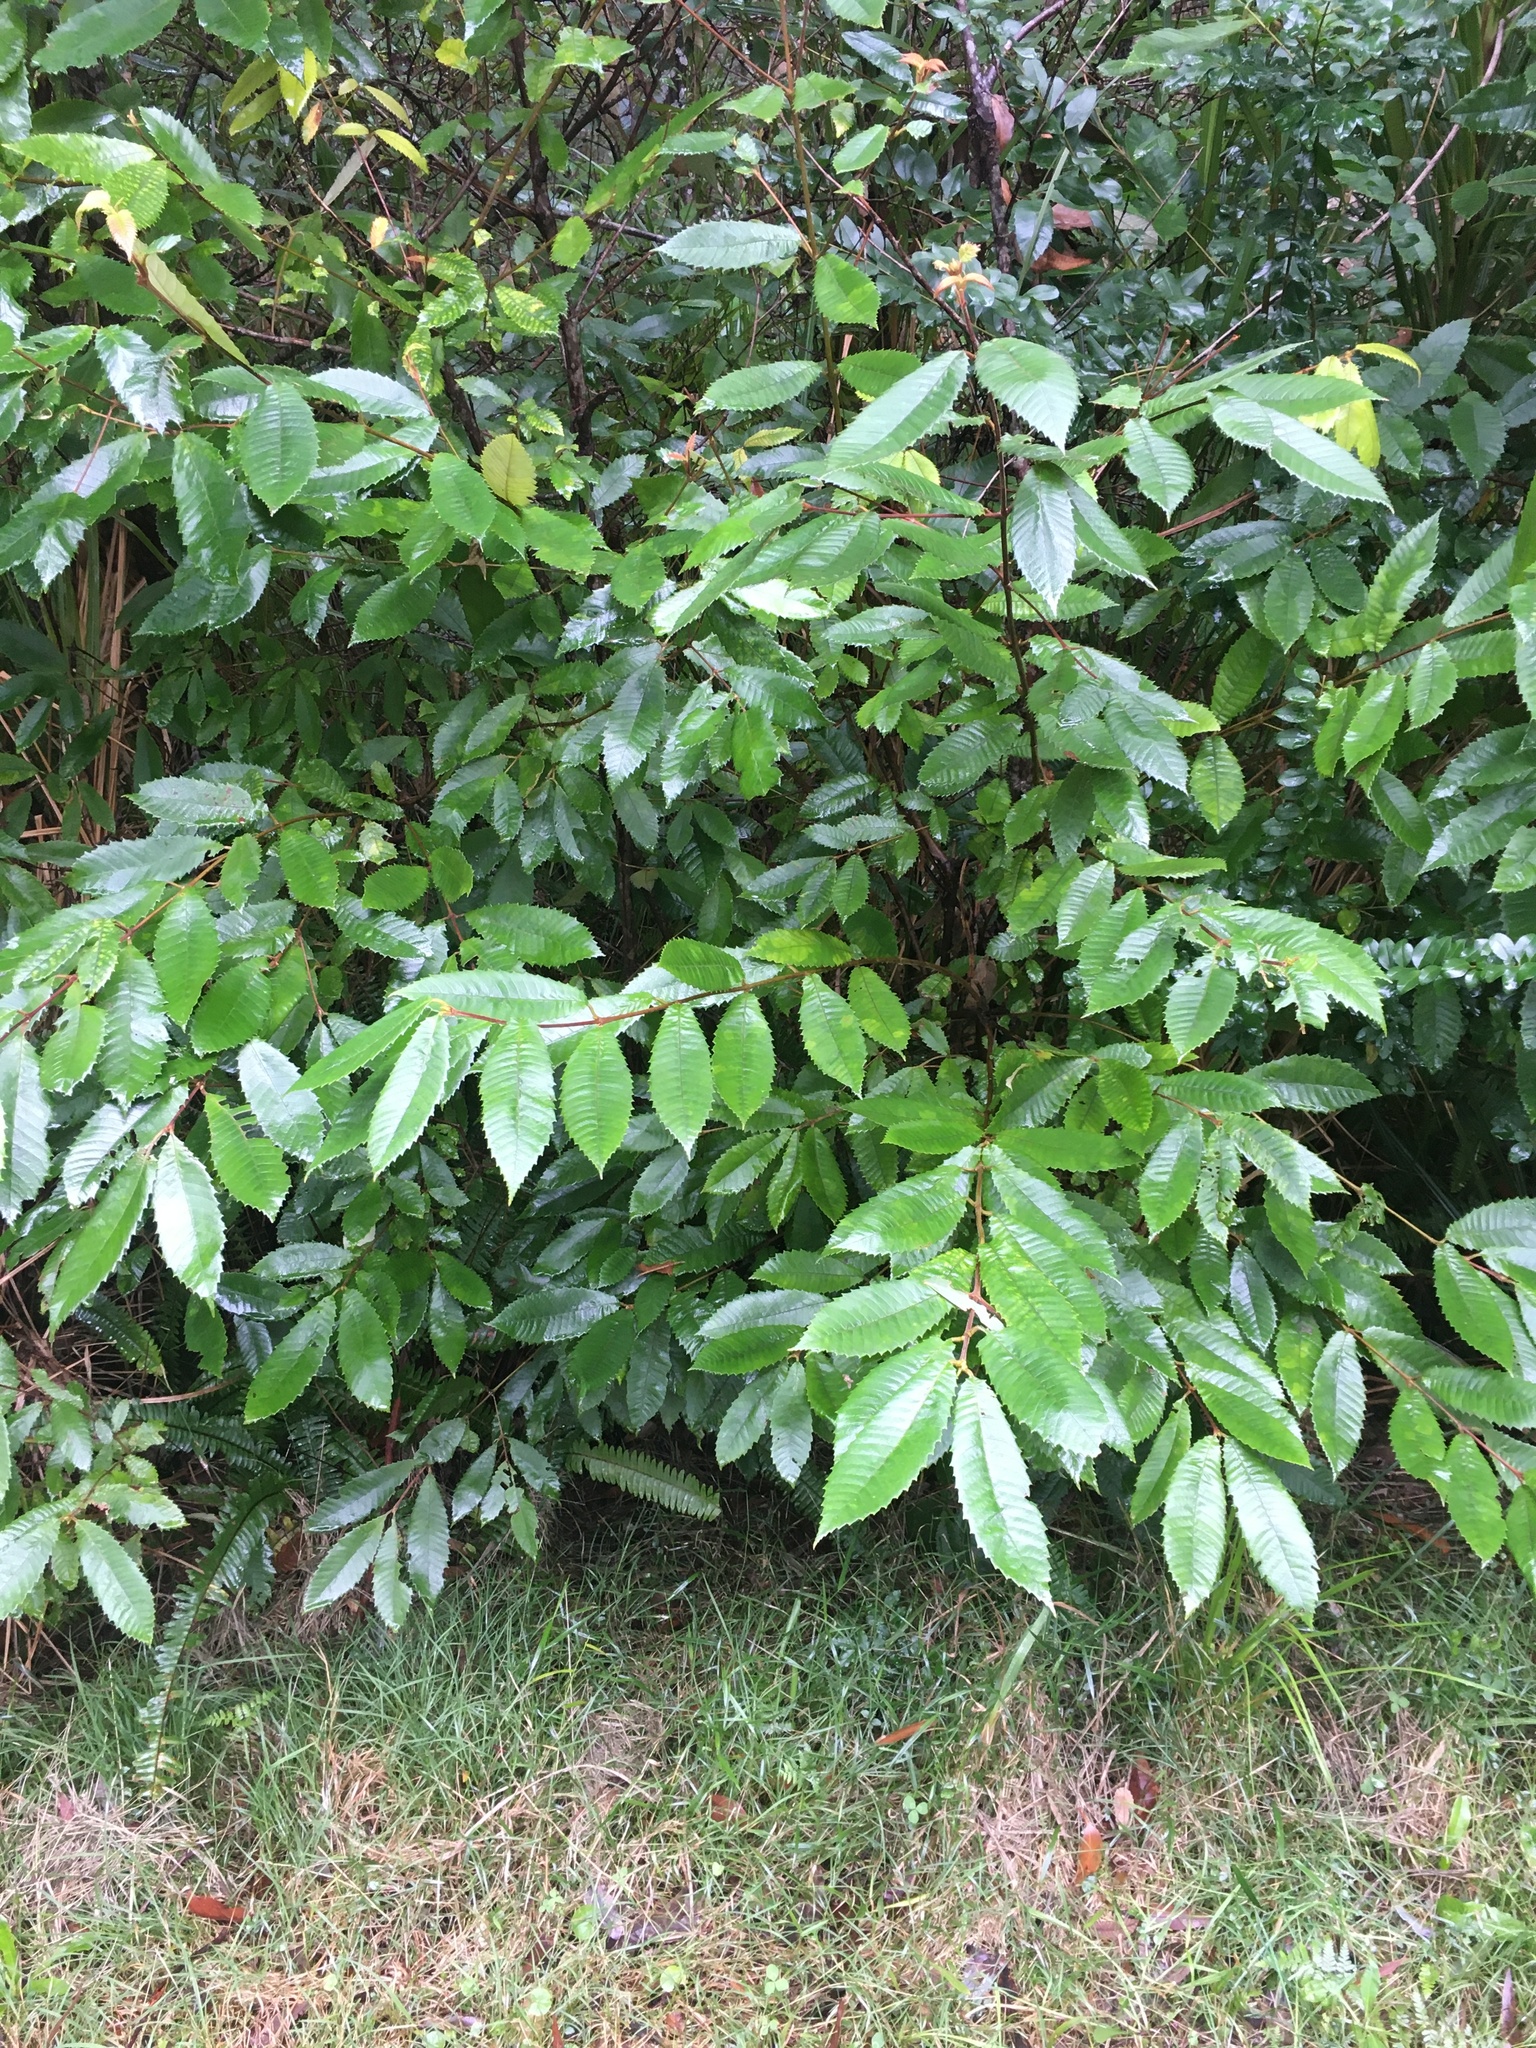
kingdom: Plantae
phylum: Tracheophyta
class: Magnoliopsida
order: Oxalidales
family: Cunoniaceae
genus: Callicoma
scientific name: Callicoma serratifolia
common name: Black wattle
